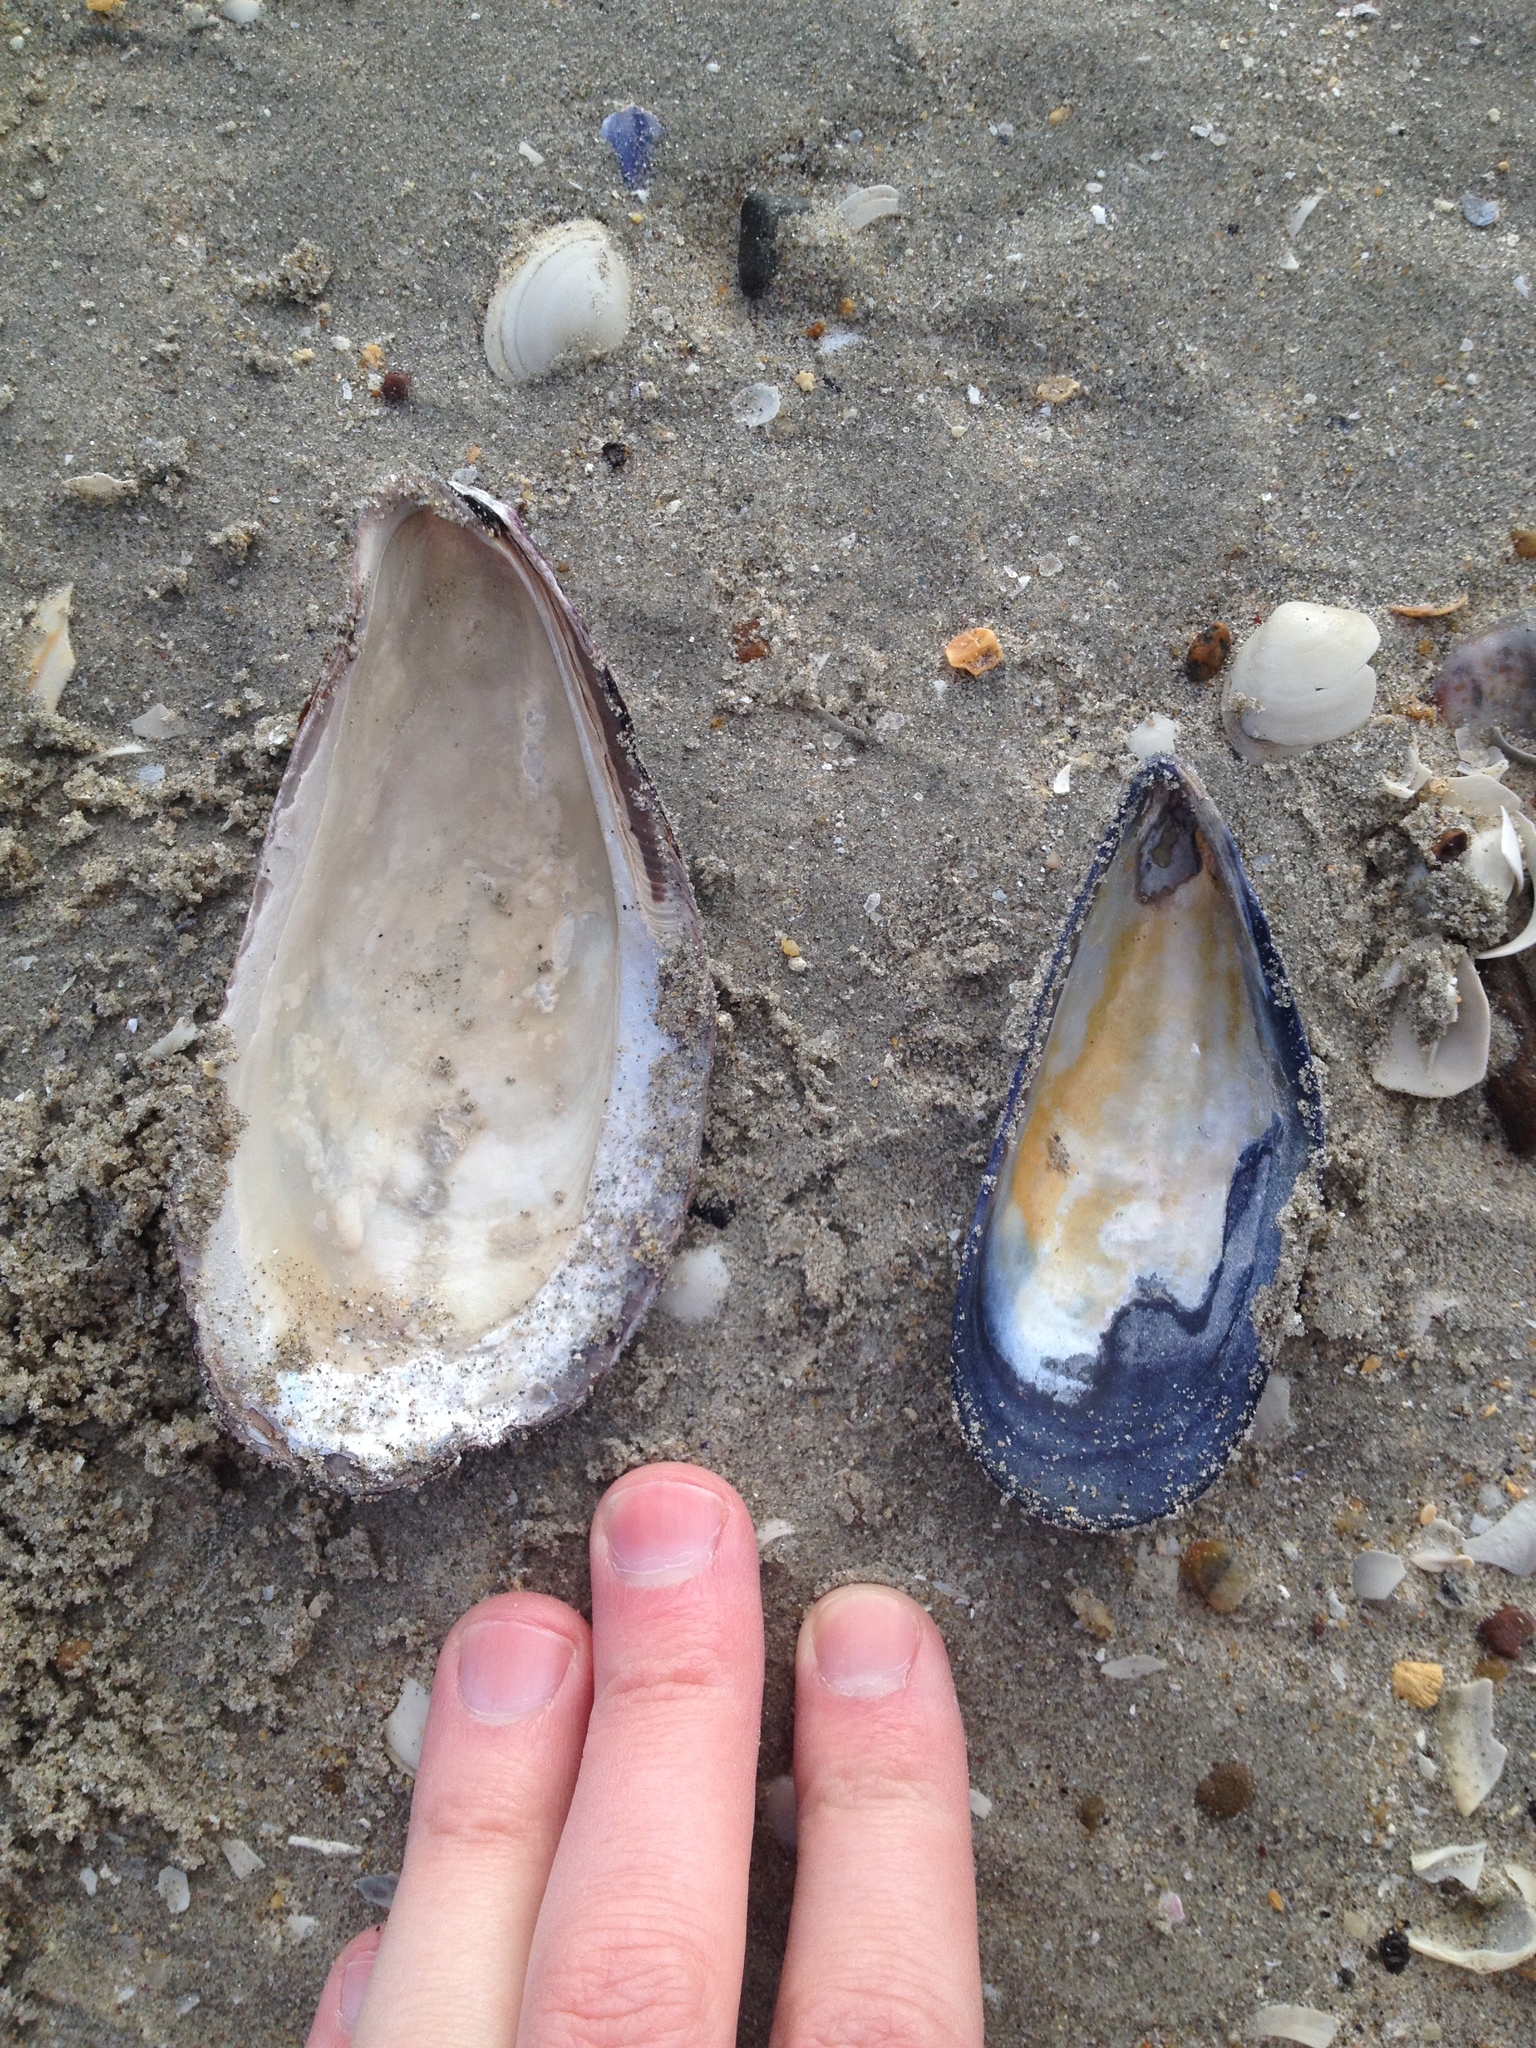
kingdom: Animalia
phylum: Mollusca
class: Bivalvia
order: Mytilida
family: Mytilidae
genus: Modiolus
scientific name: Modiolus modiolus
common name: Horse-mussel
